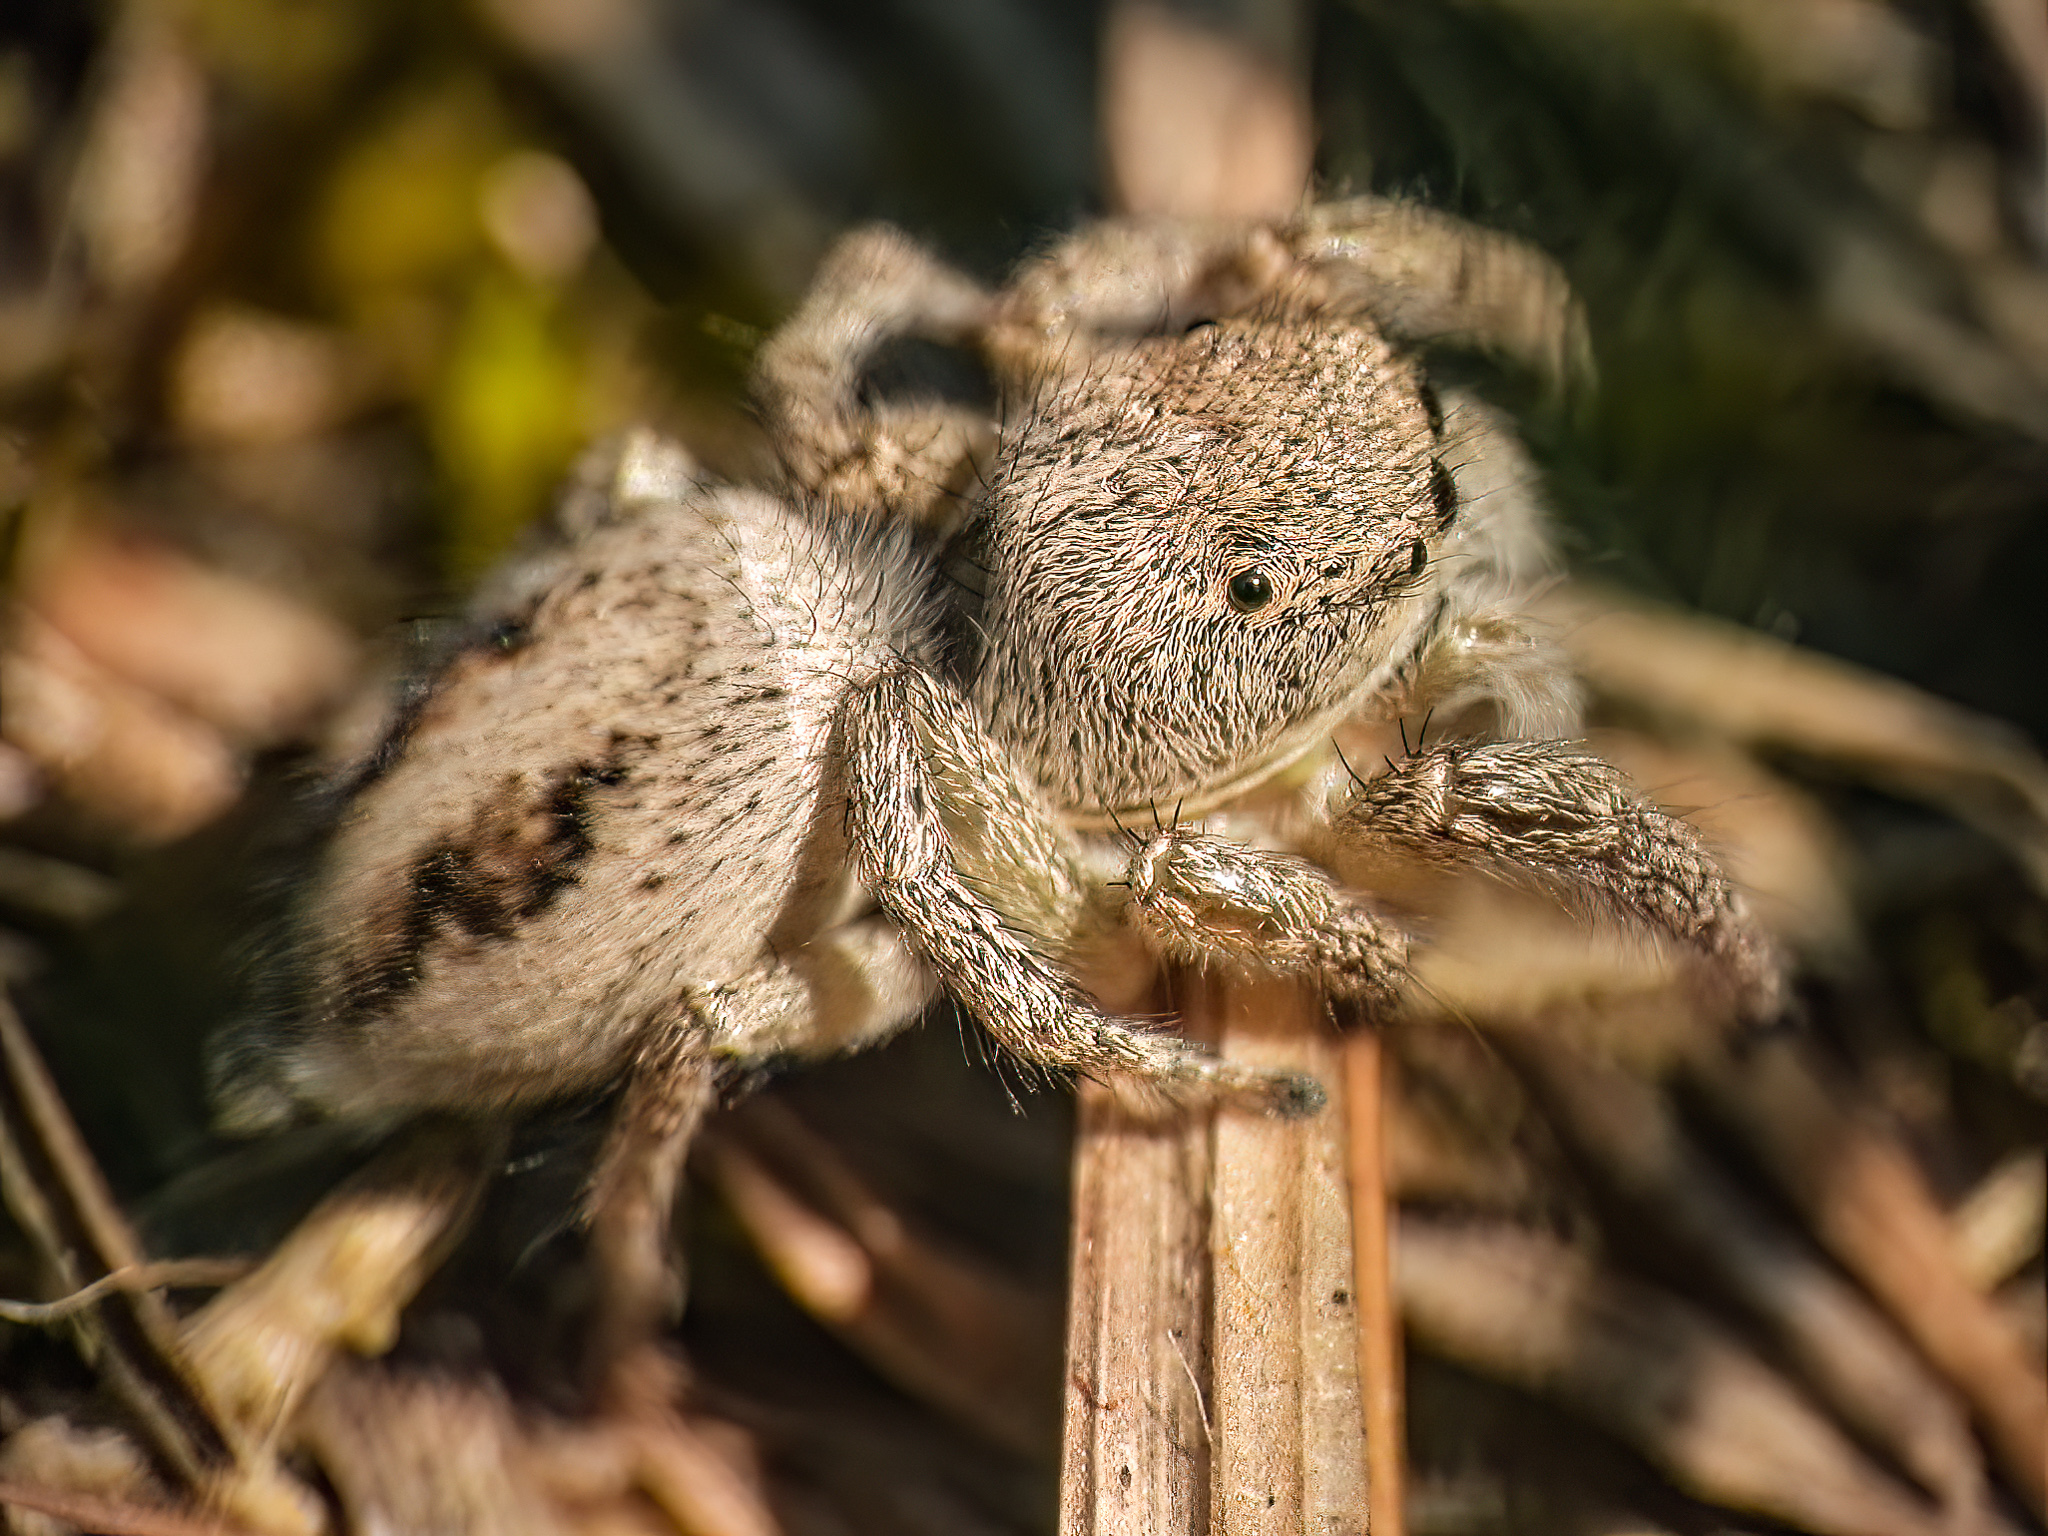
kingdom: Animalia
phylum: Arthropoda
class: Arachnida
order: Araneae
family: Salticidae
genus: Habronattus
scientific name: Habronattus decorus
